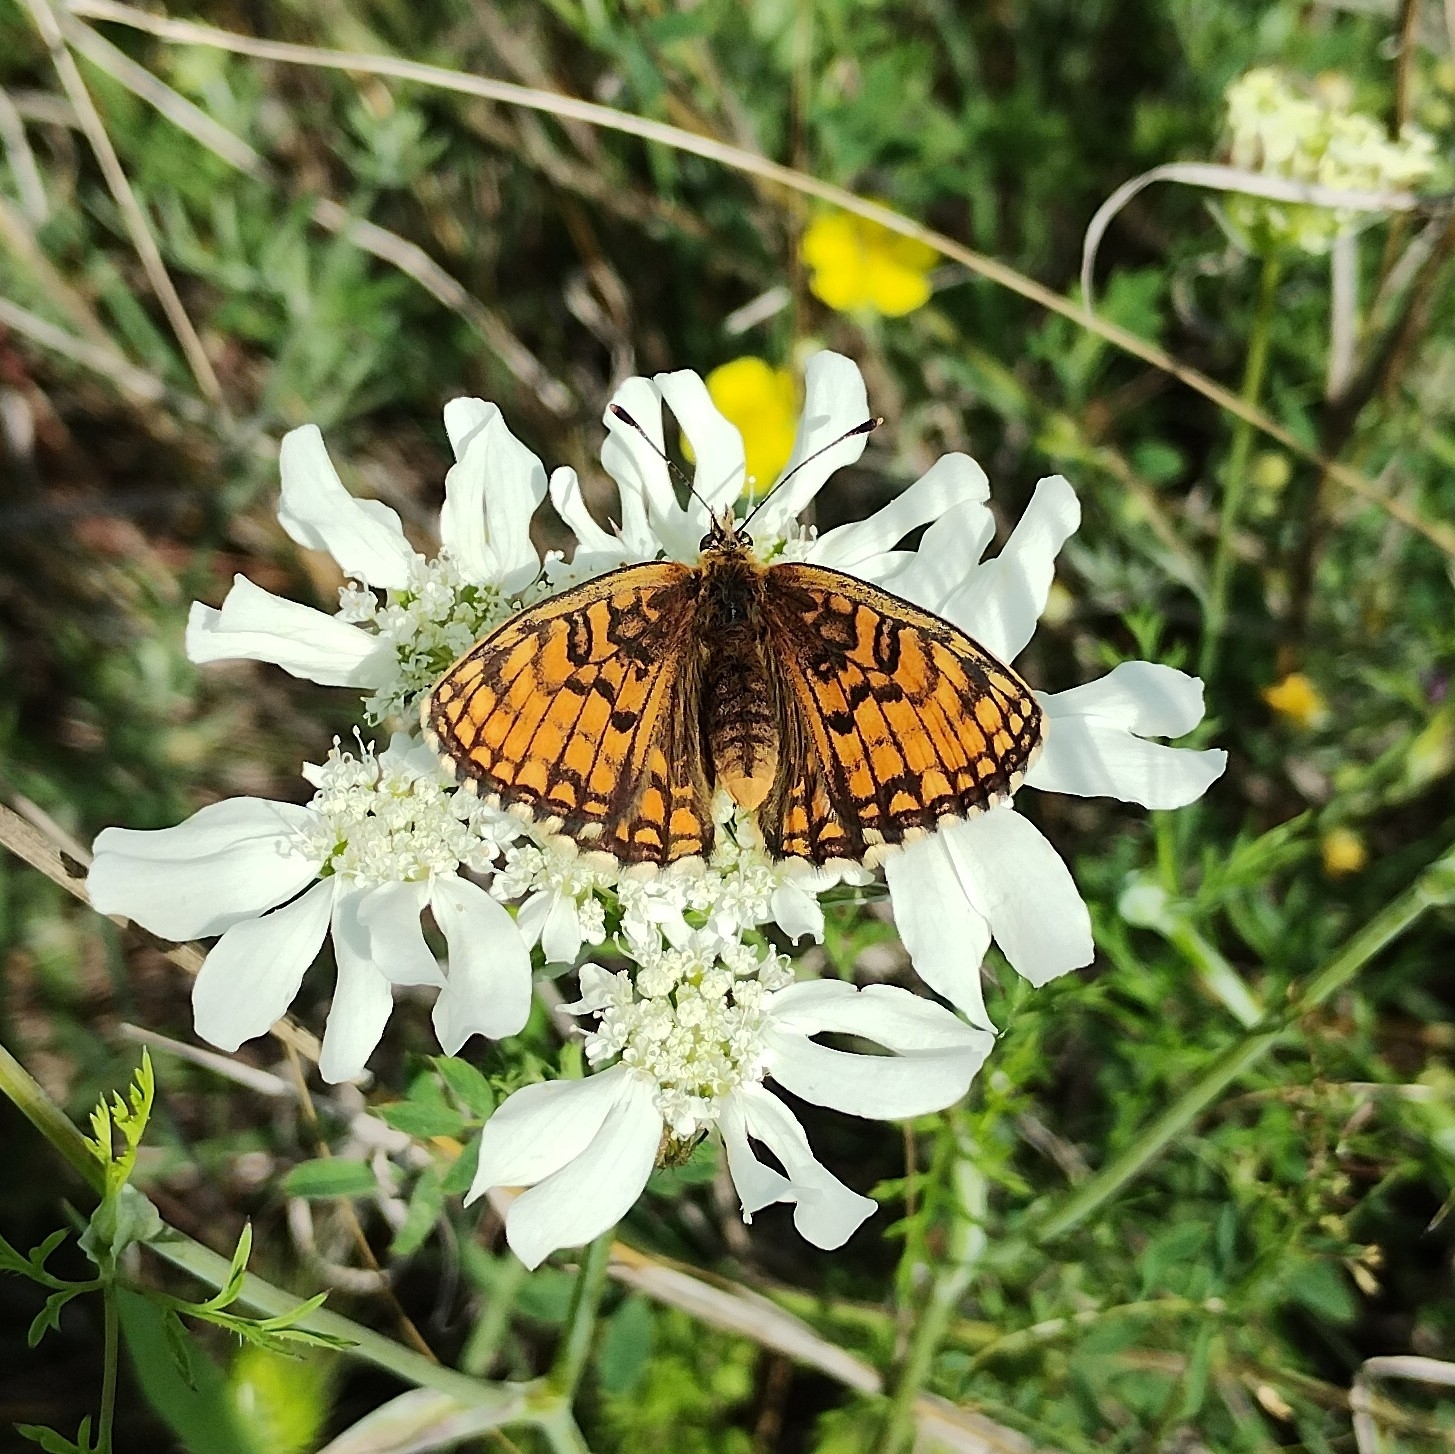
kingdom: Animalia
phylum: Arthropoda
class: Insecta
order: Lepidoptera
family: Nymphalidae
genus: Melitaea
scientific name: Melitaea athalia
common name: Heath fritillary
